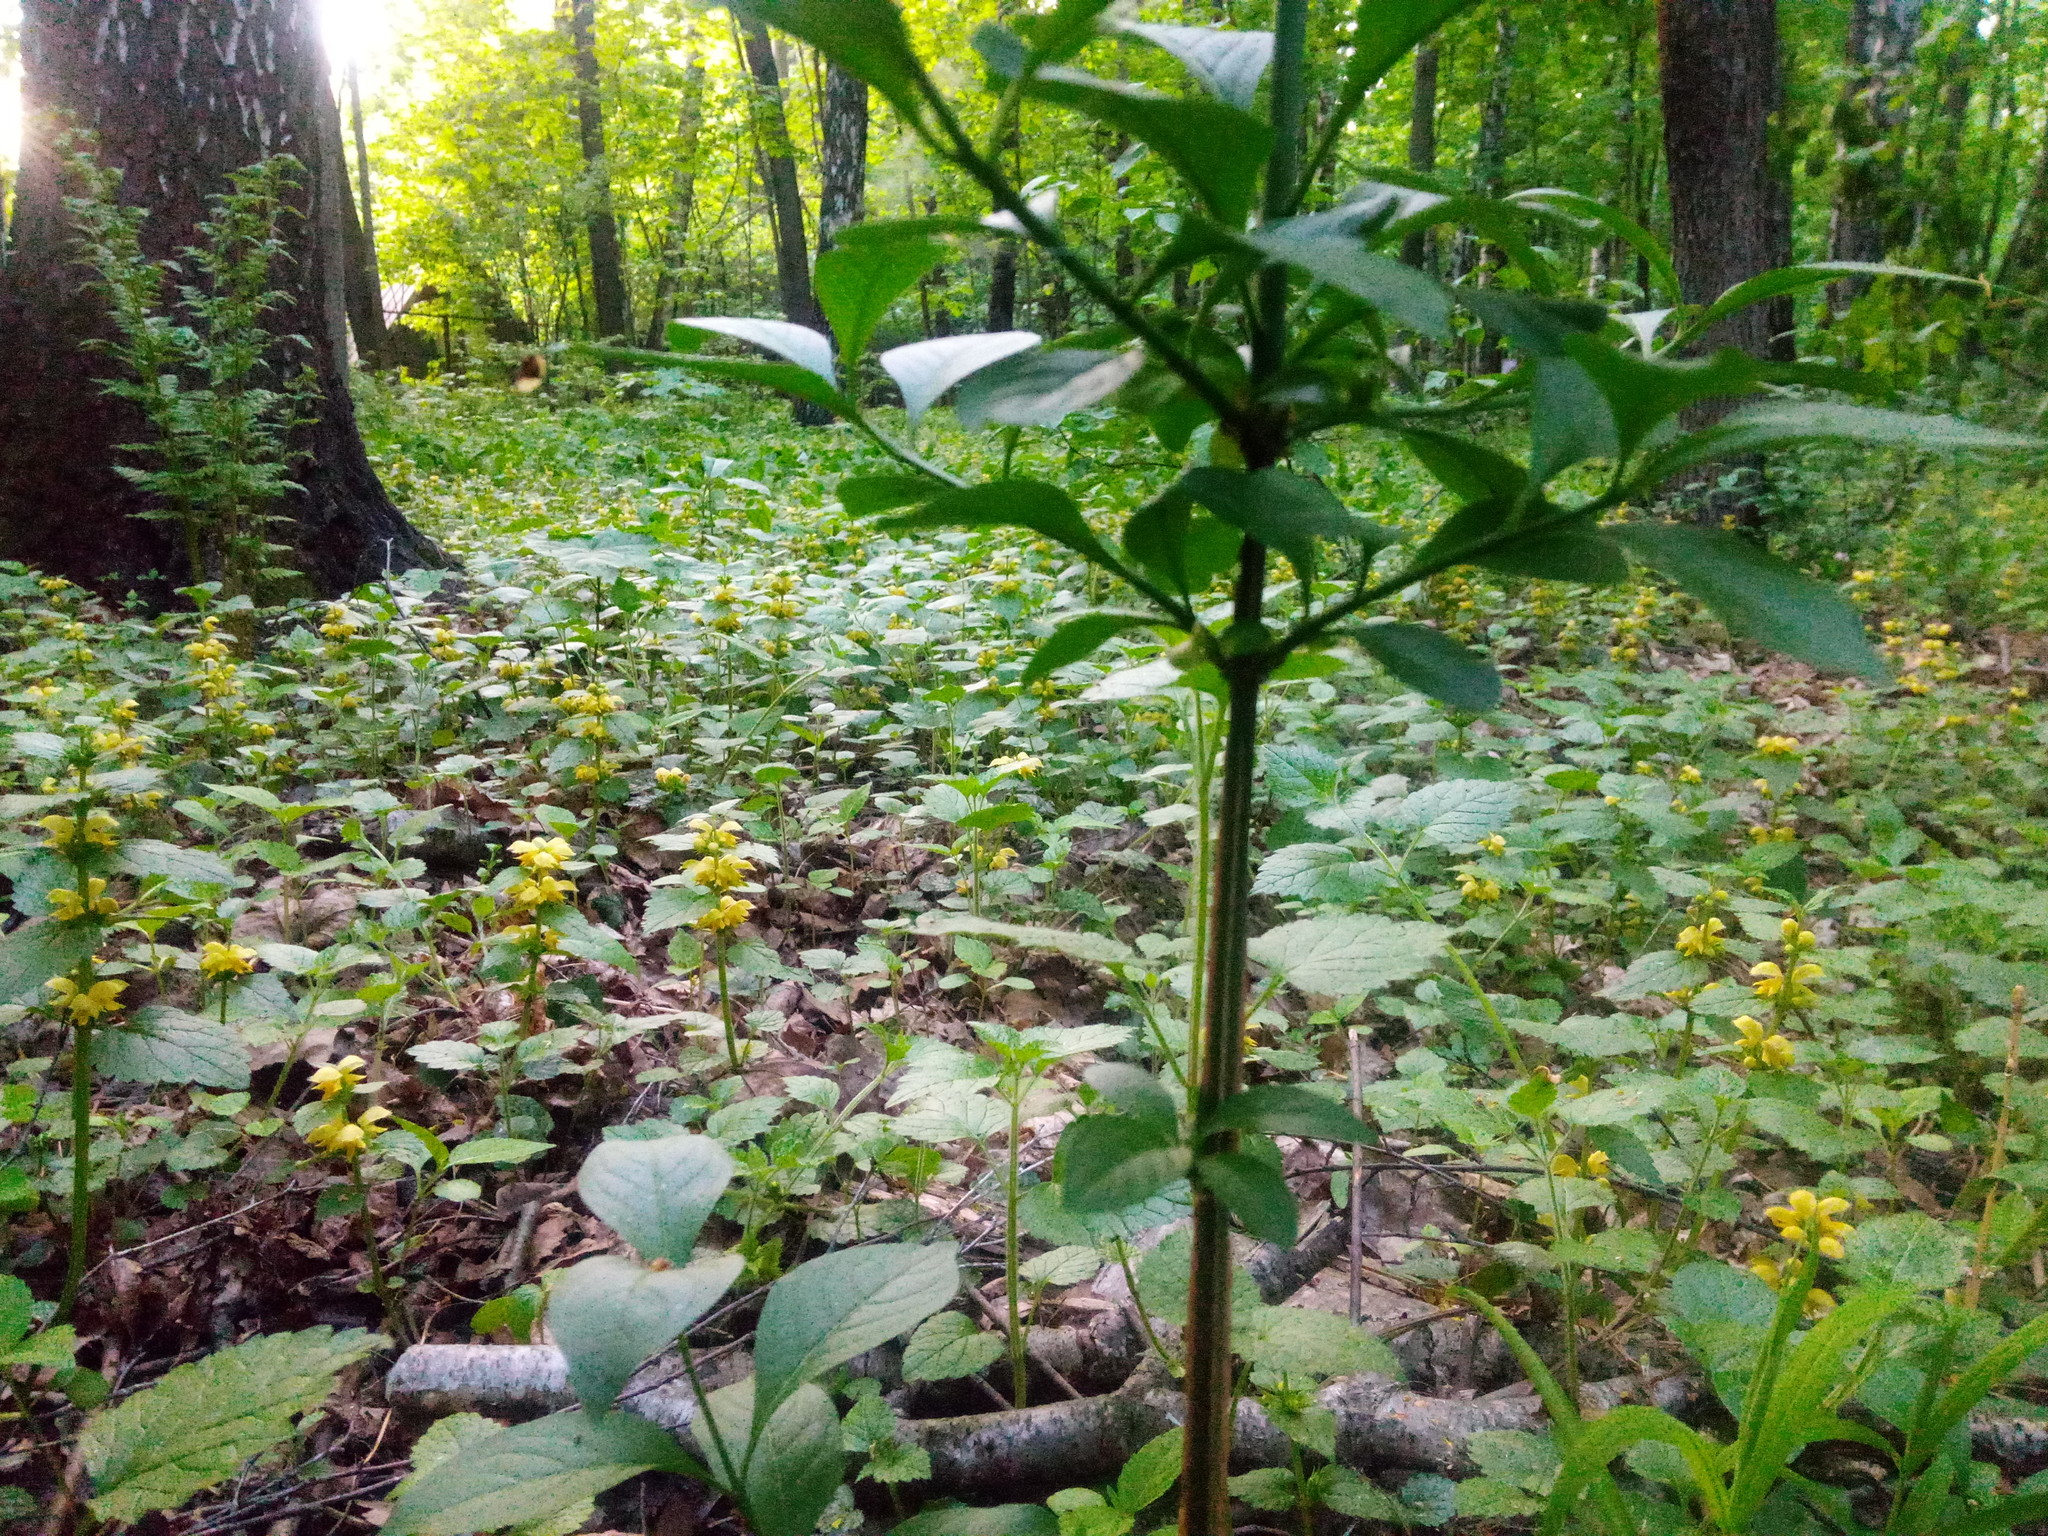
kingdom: Plantae
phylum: Tracheophyta
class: Magnoliopsida
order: Celastrales
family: Celastraceae
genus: Euonymus
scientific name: Euonymus europaeus
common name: Spindle
